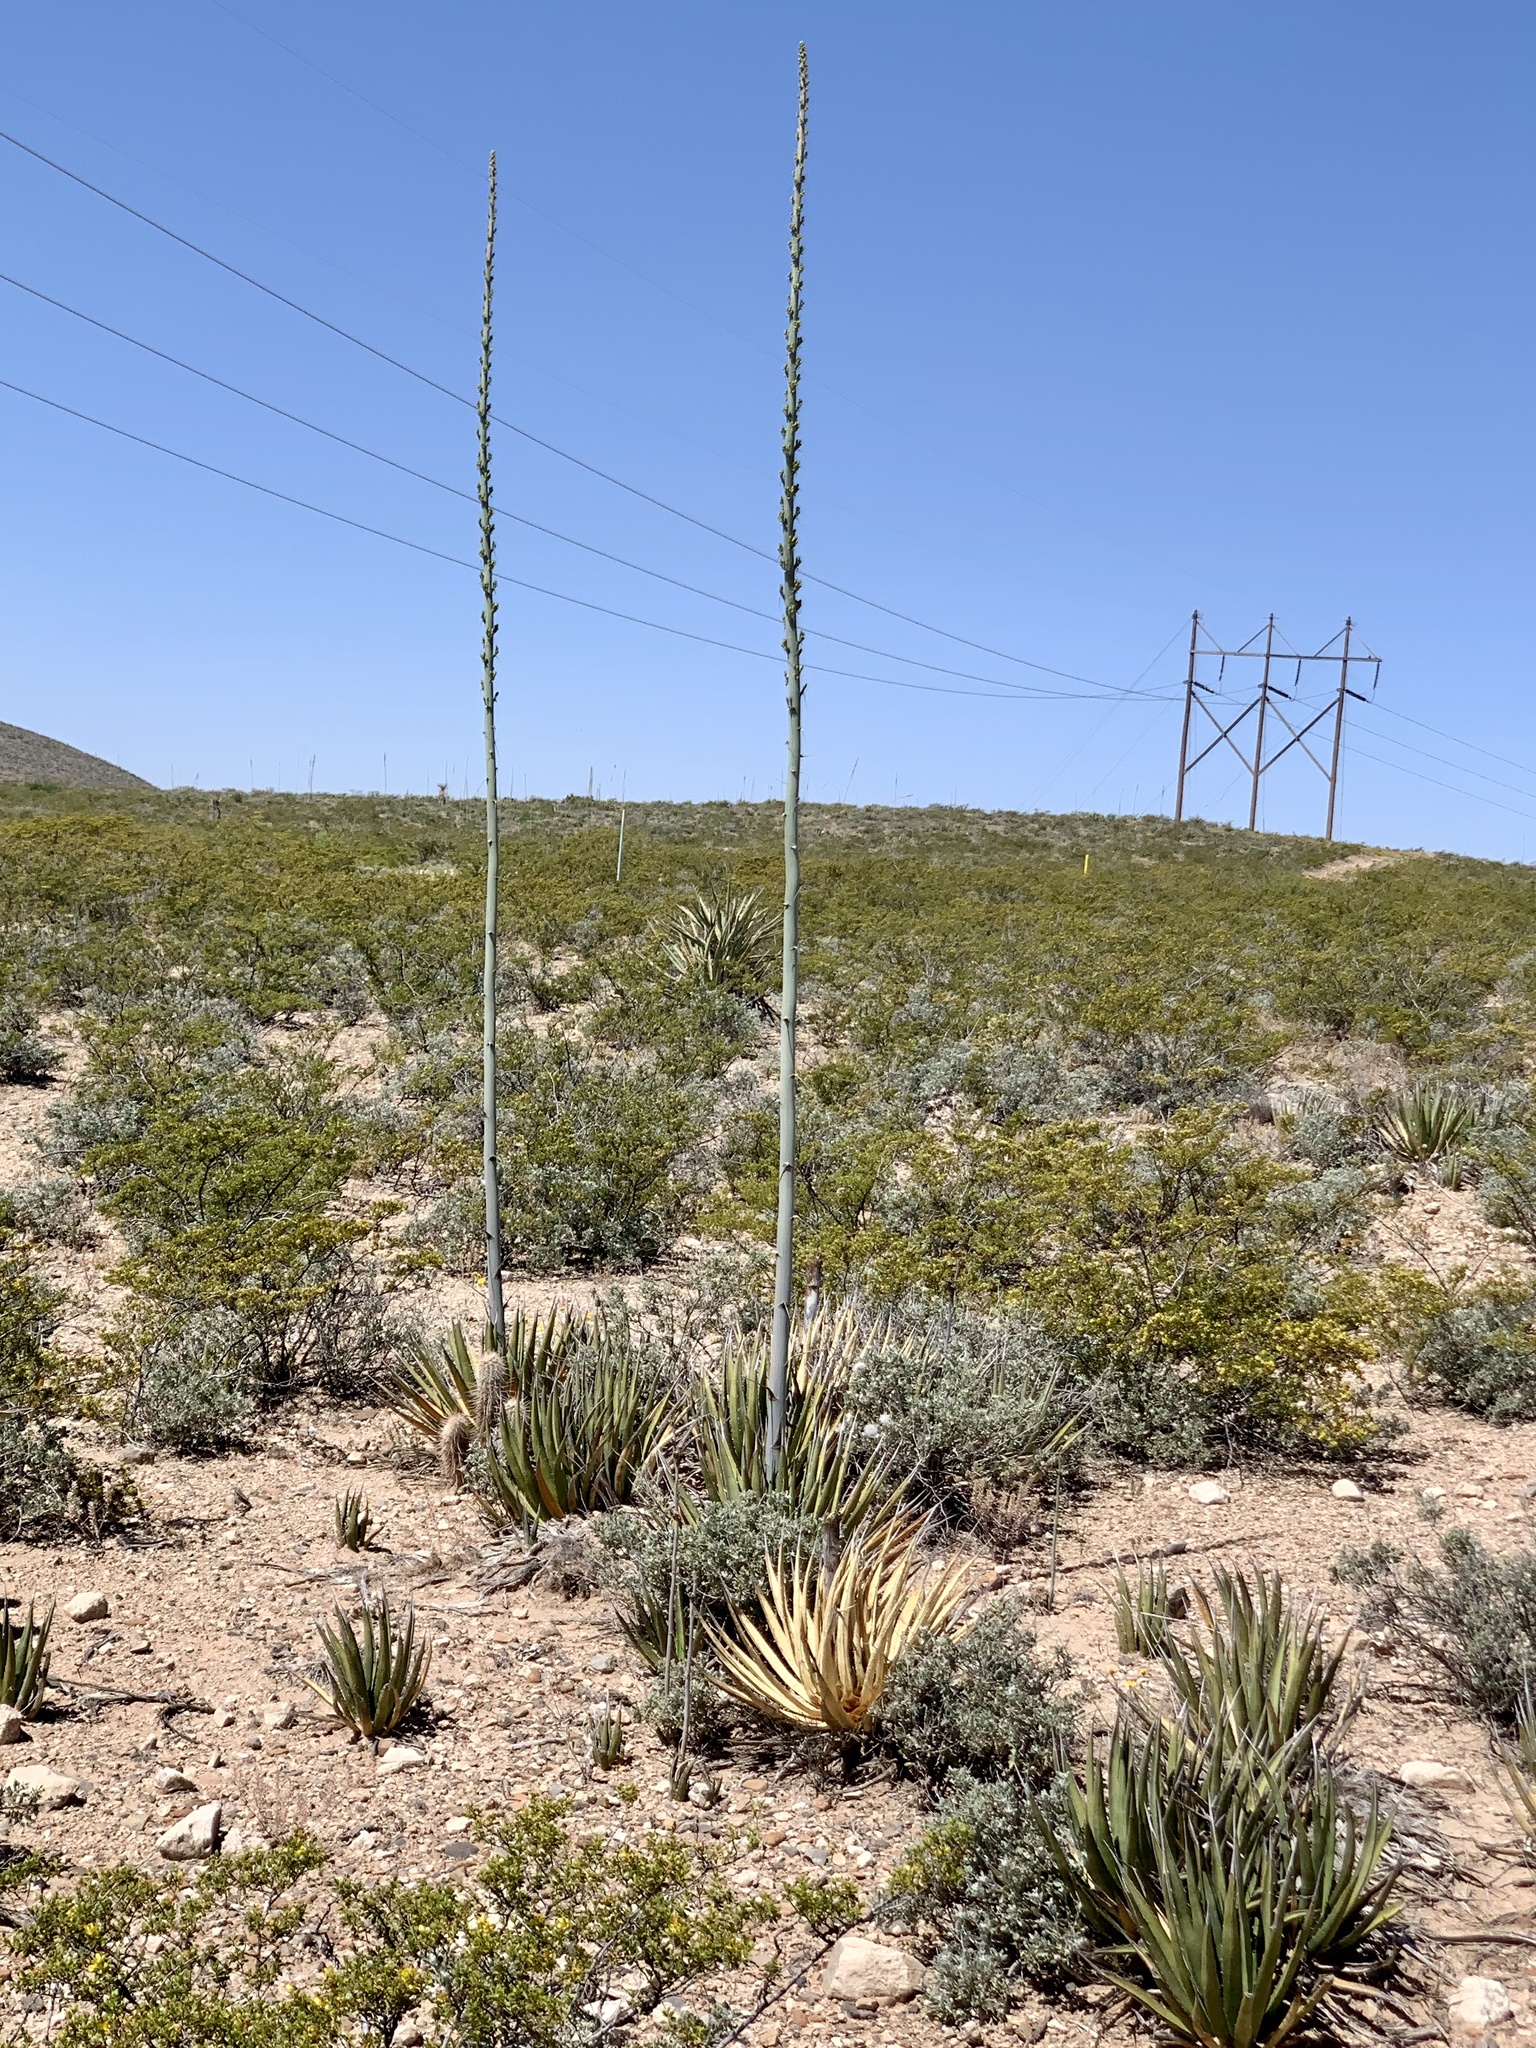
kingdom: Plantae
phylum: Tracheophyta
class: Liliopsida
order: Asparagales
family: Asparagaceae
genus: Agave
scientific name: Agave lechuguilla
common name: Lecheguilla agave
